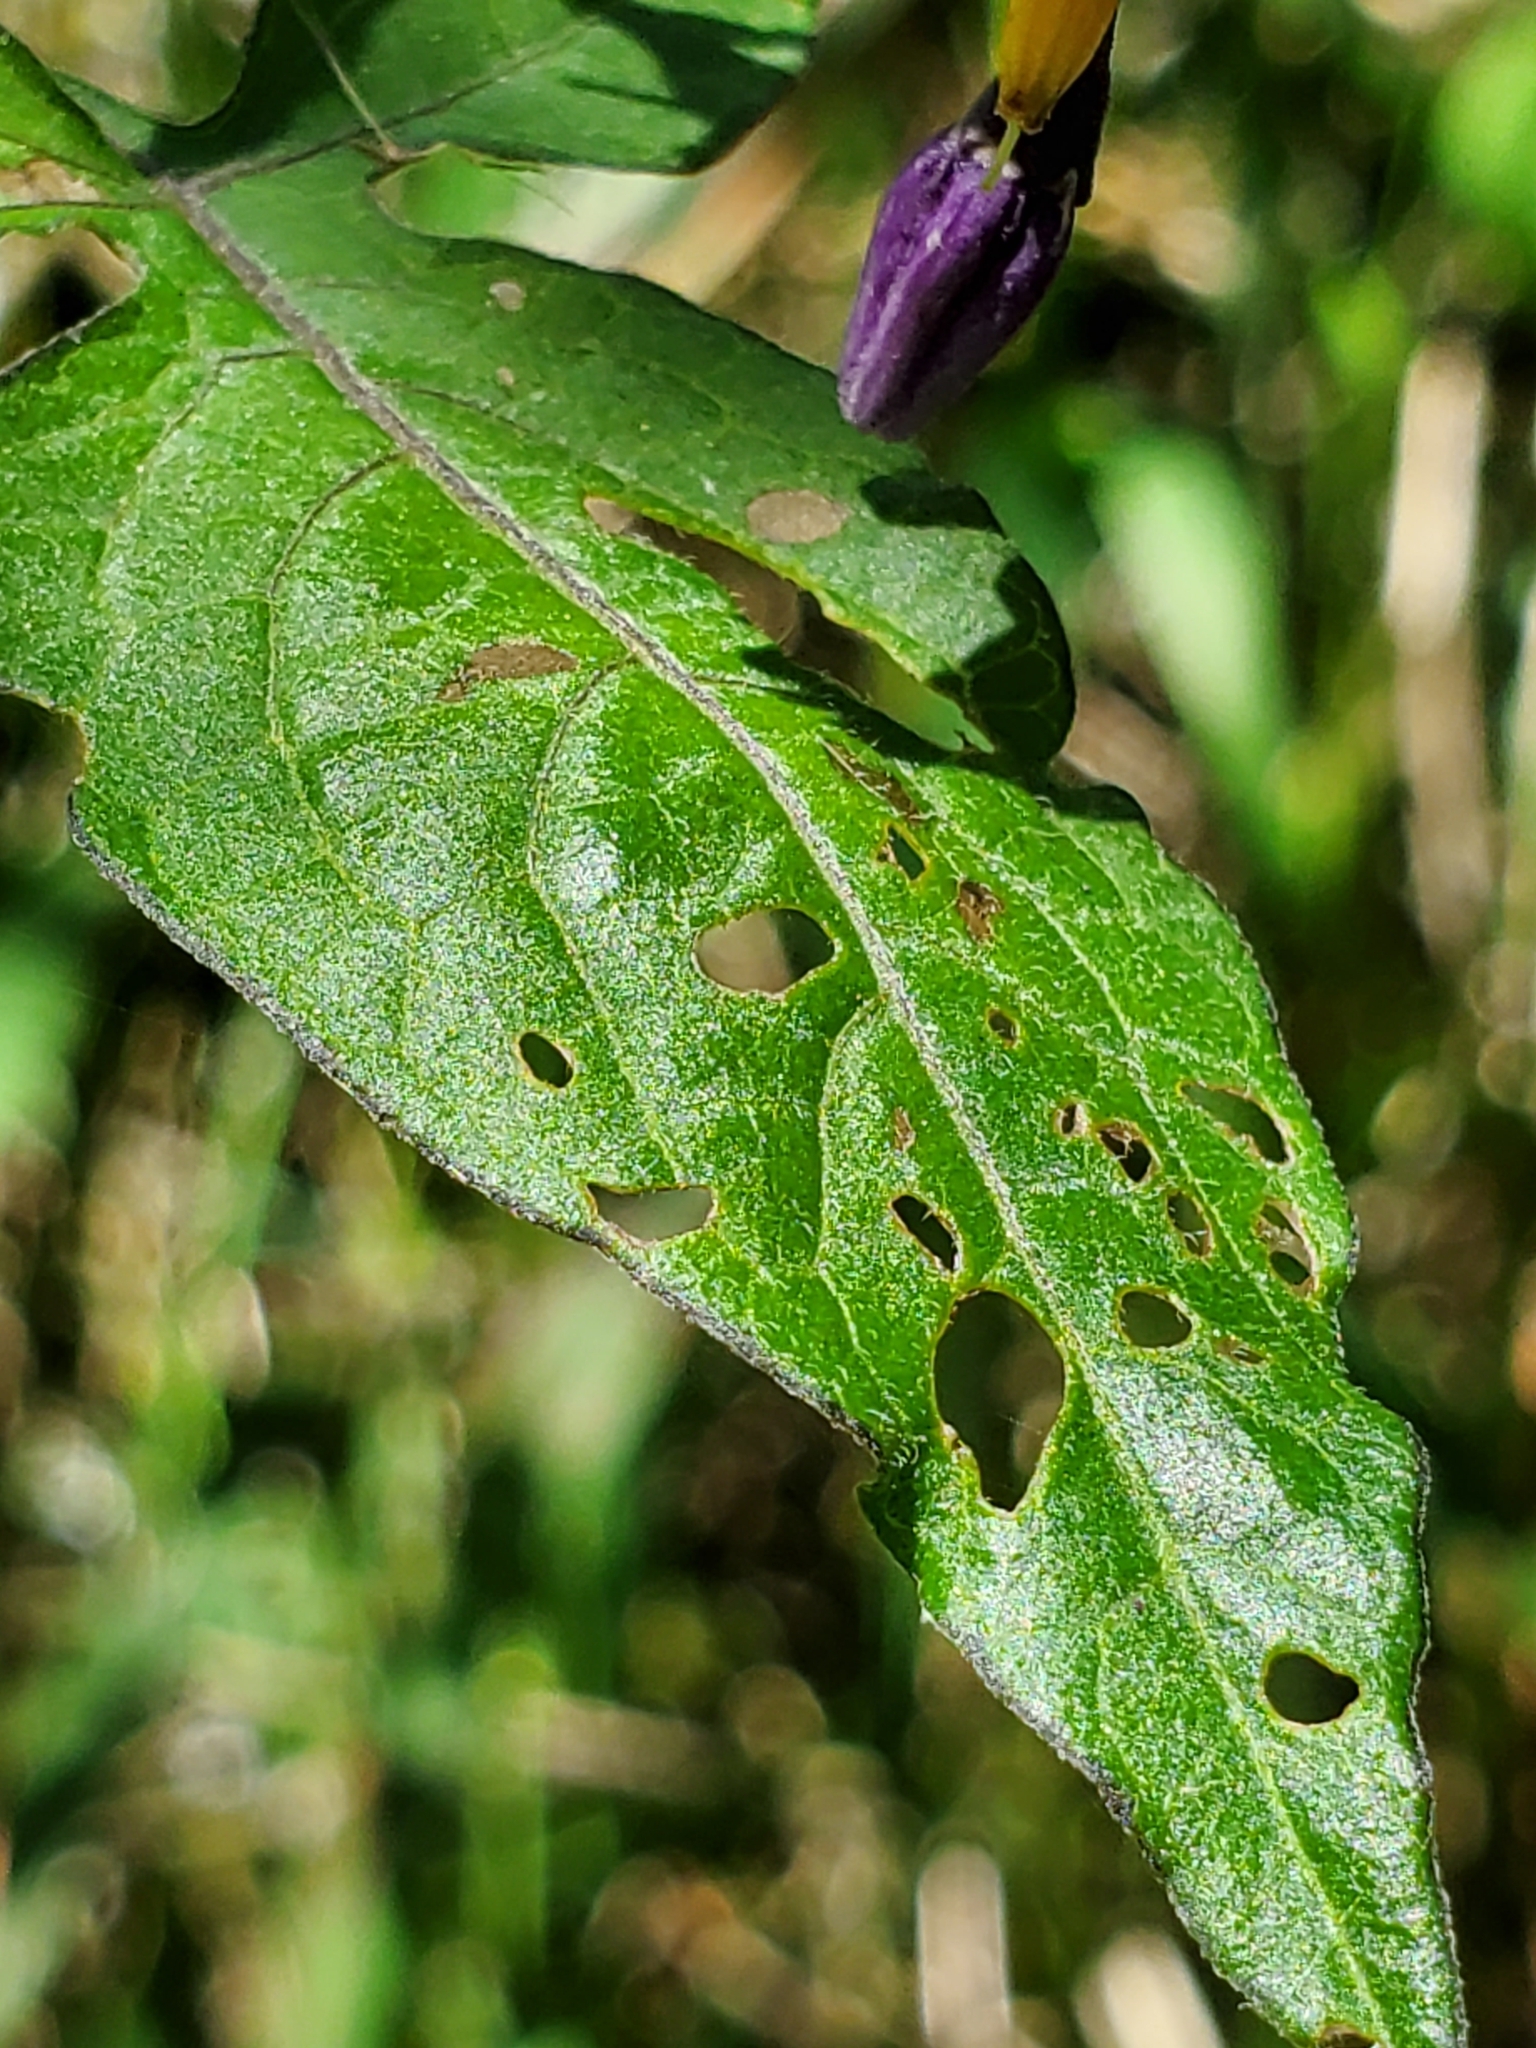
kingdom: Plantae
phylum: Tracheophyta
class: Magnoliopsida
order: Solanales
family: Solanaceae
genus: Solanum
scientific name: Solanum dulcamara
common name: Climbing nightshade
